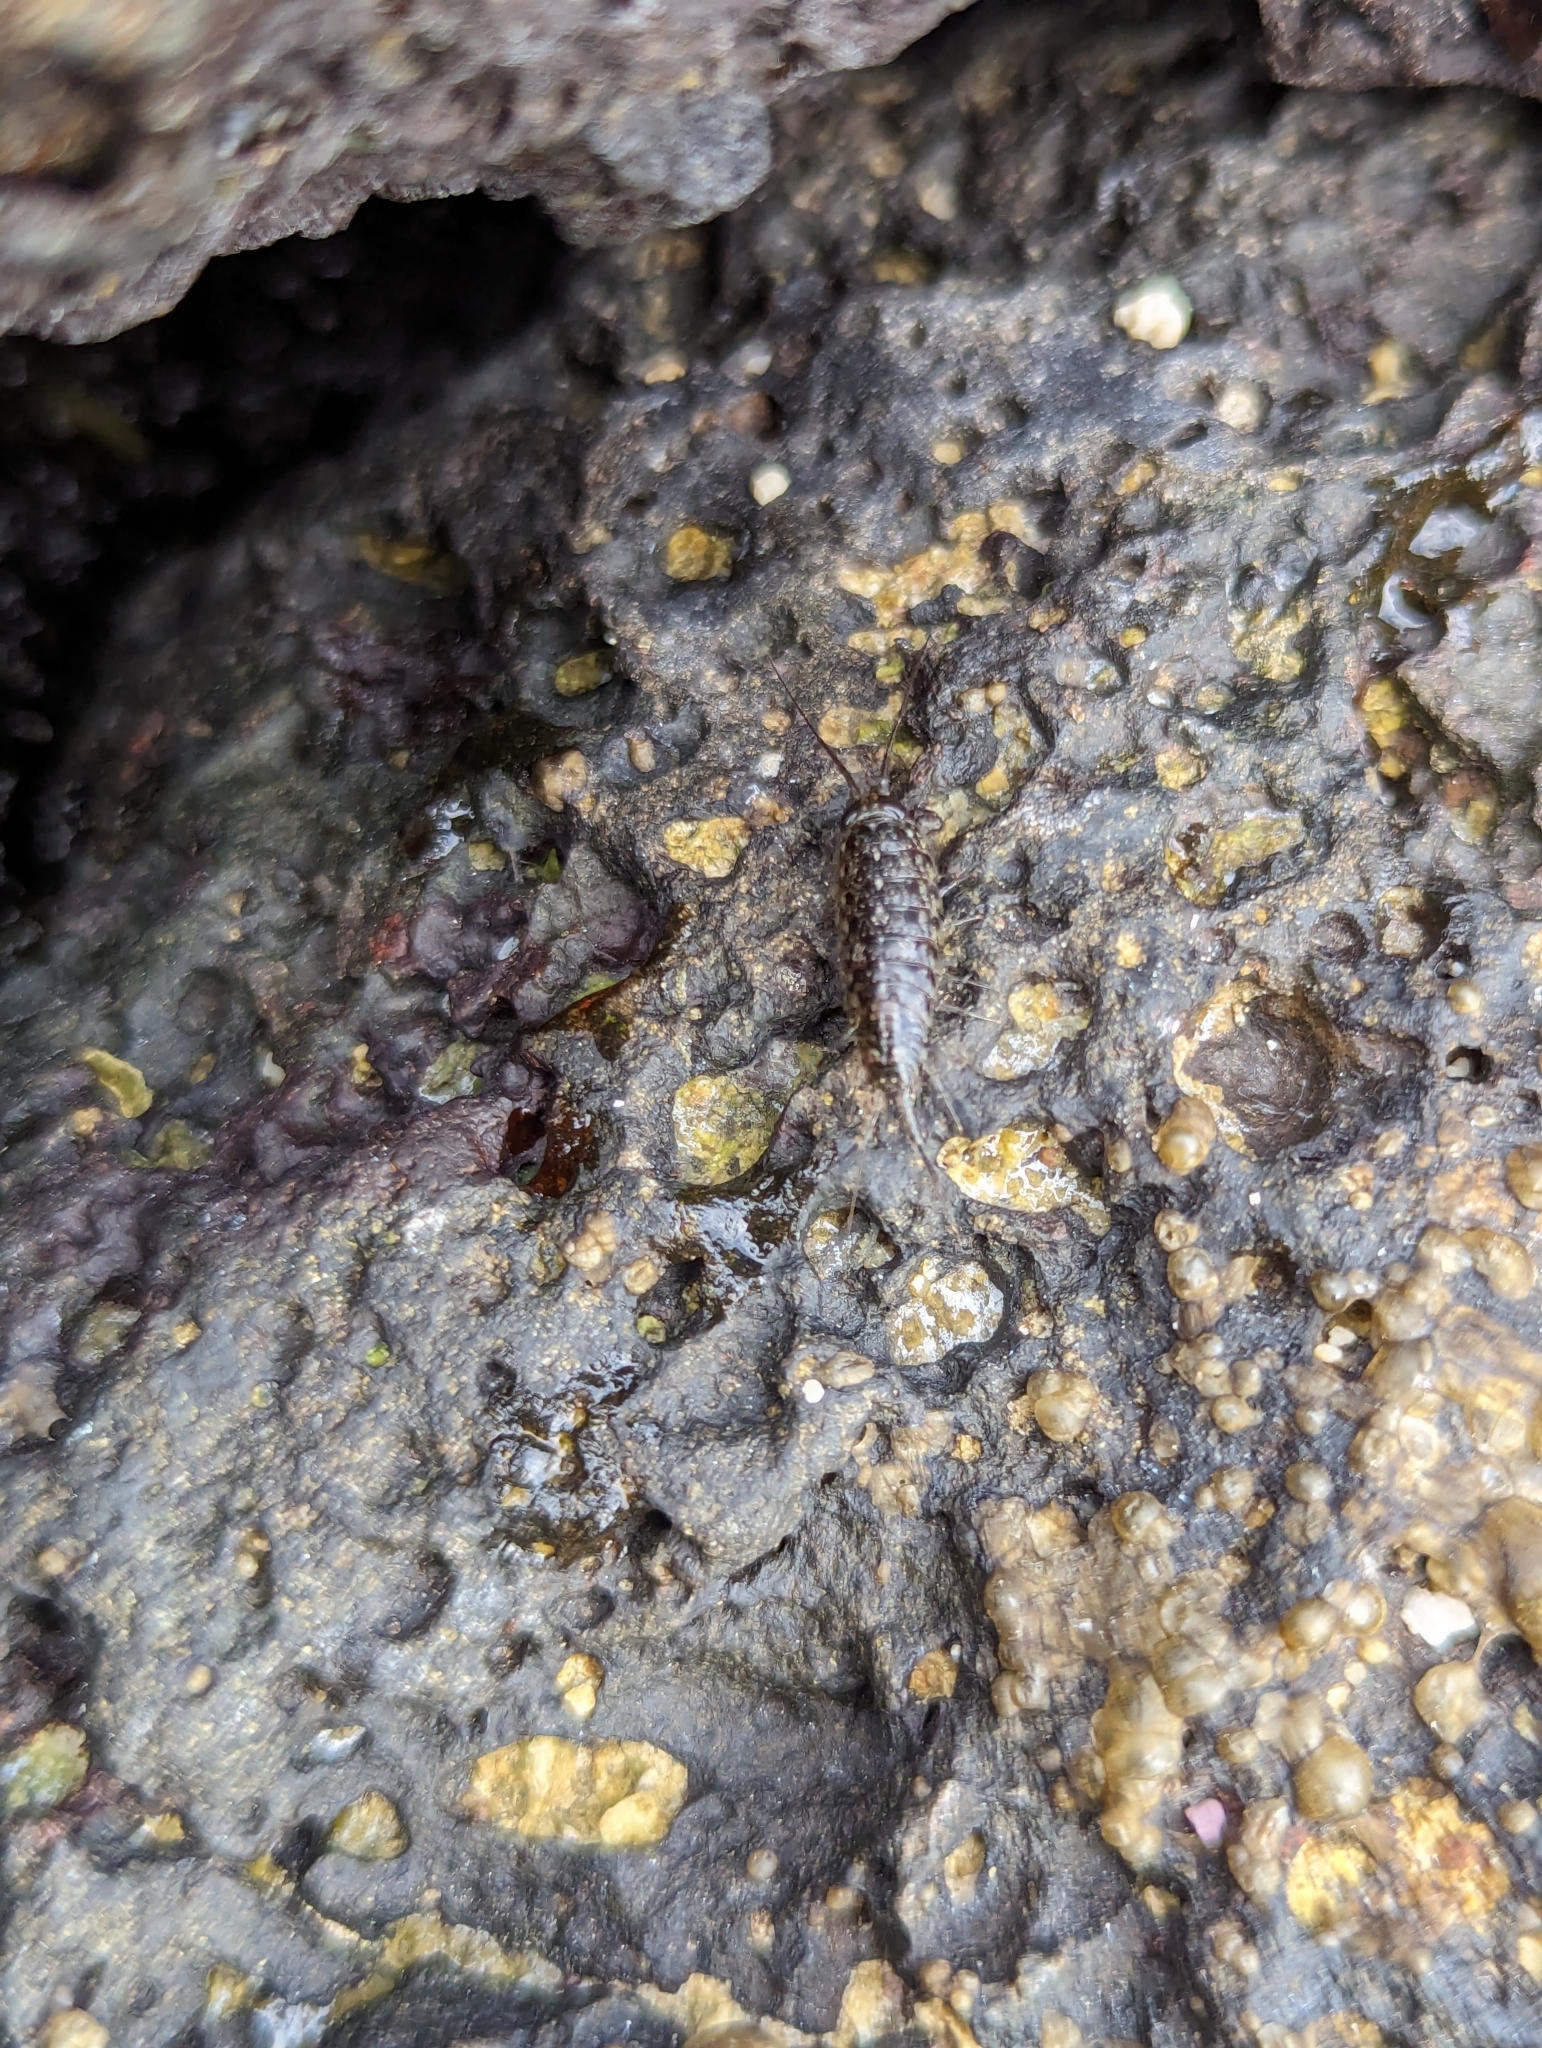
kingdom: Animalia
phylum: Arthropoda
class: Malacostraca
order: Isopoda
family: Ligiidae
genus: Ligia
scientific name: Ligia baudiniana
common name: Wharf louse
